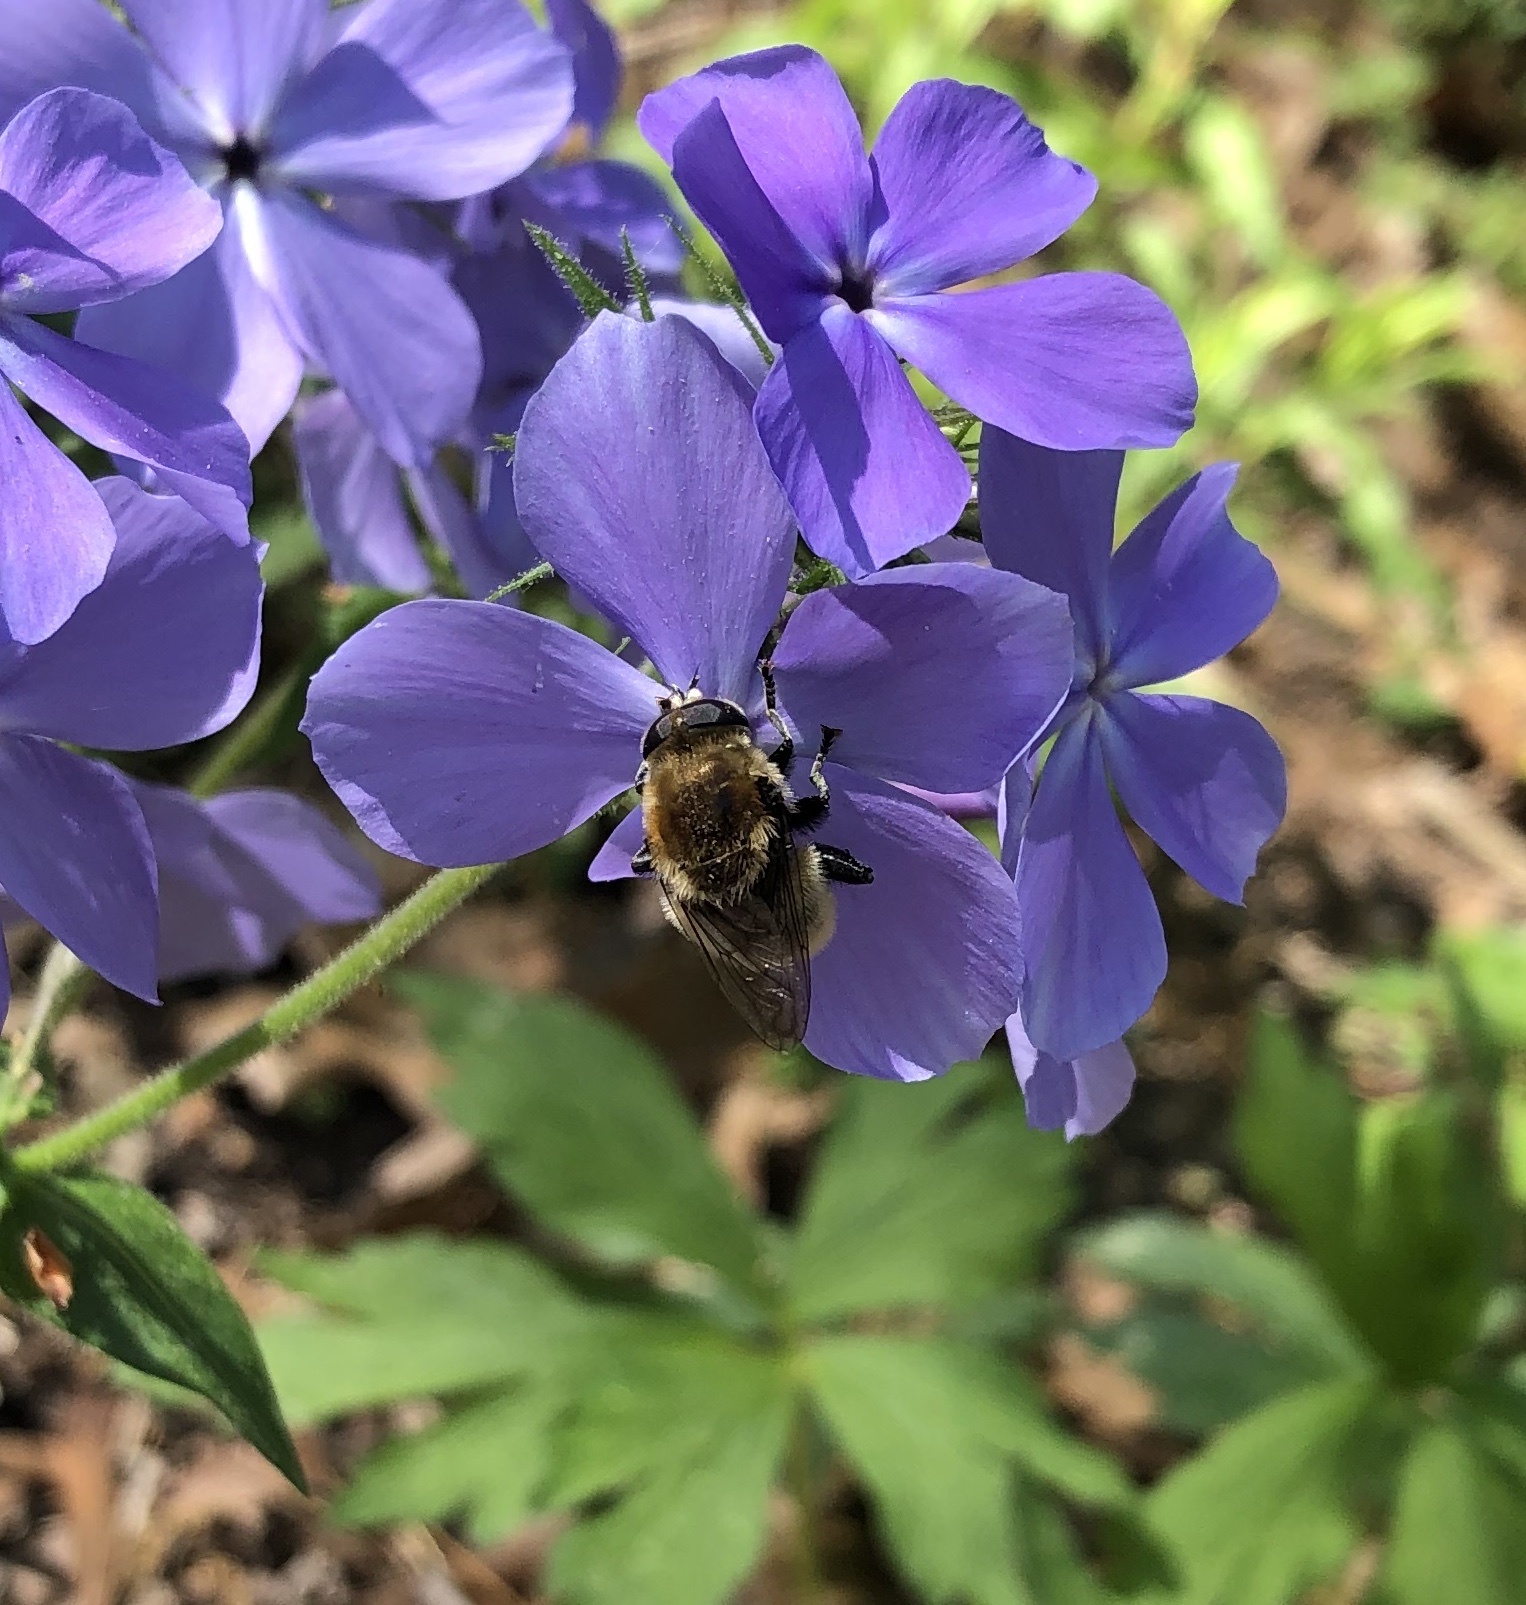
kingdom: Animalia
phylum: Arthropoda
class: Insecta
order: Diptera
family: Syrphidae
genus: Merodon
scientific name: Merodon equestris
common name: Greater bulb-fly
